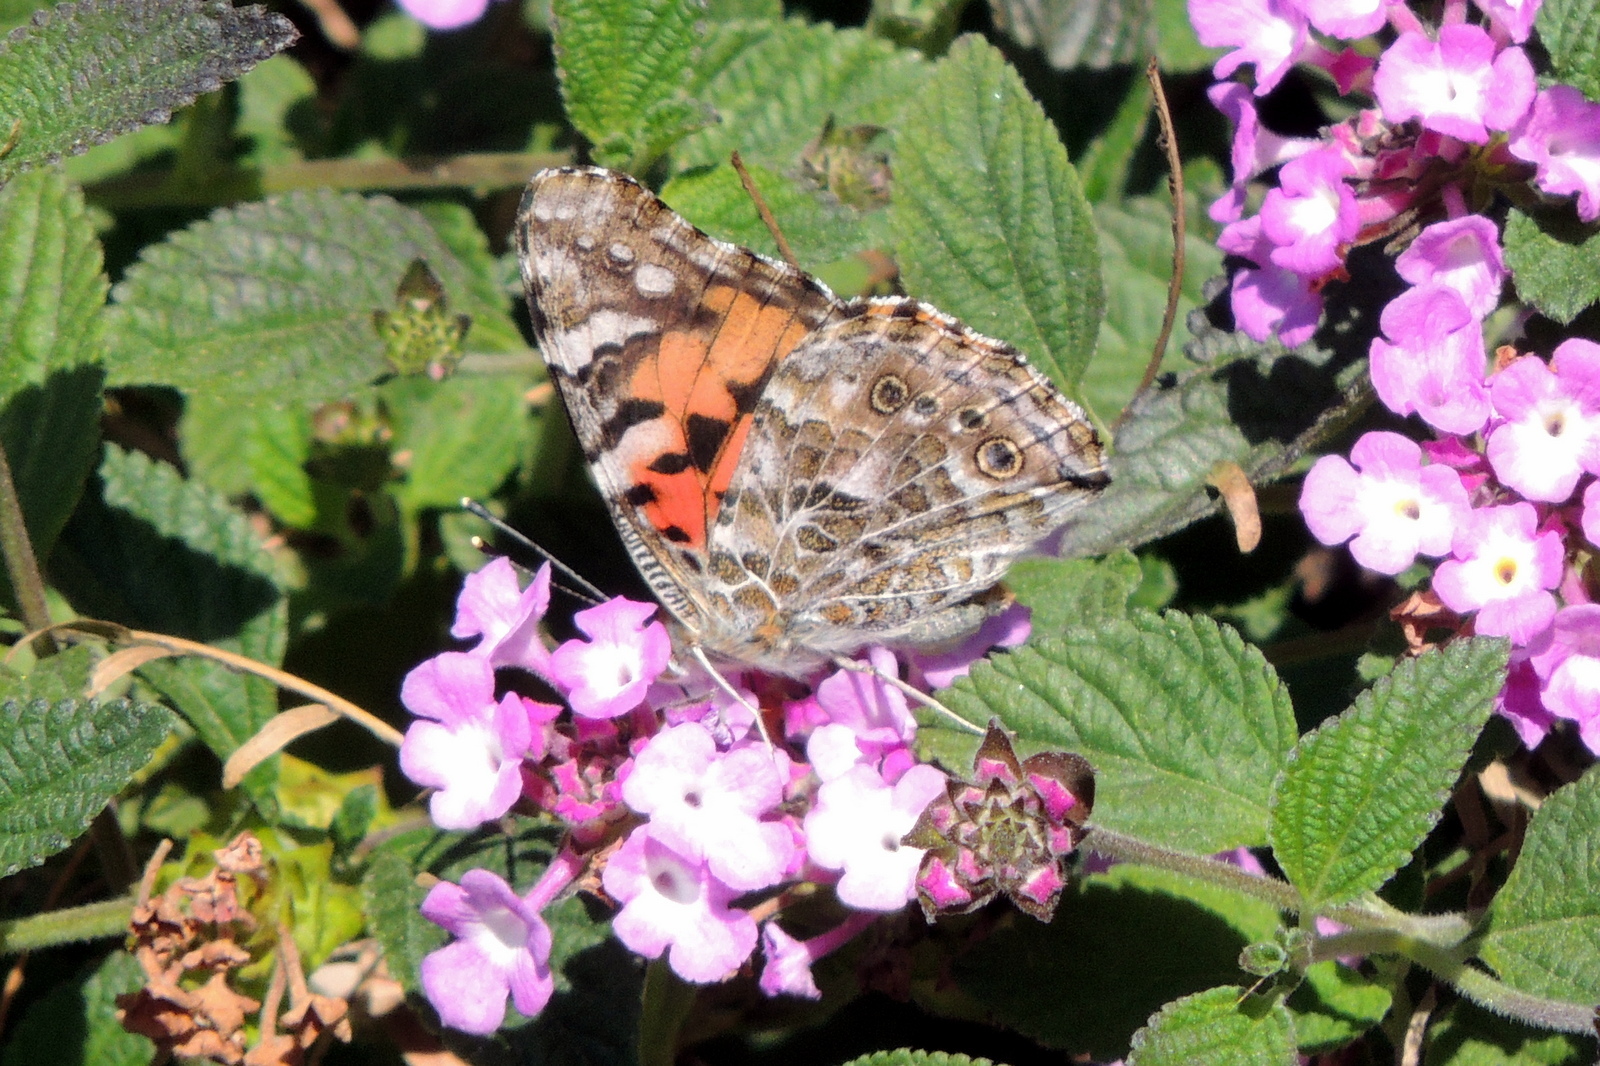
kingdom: Animalia
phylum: Arthropoda
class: Insecta
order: Lepidoptera
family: Nymphalidae
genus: Vanessa
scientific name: Vanessa cardui
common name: Painted lady
